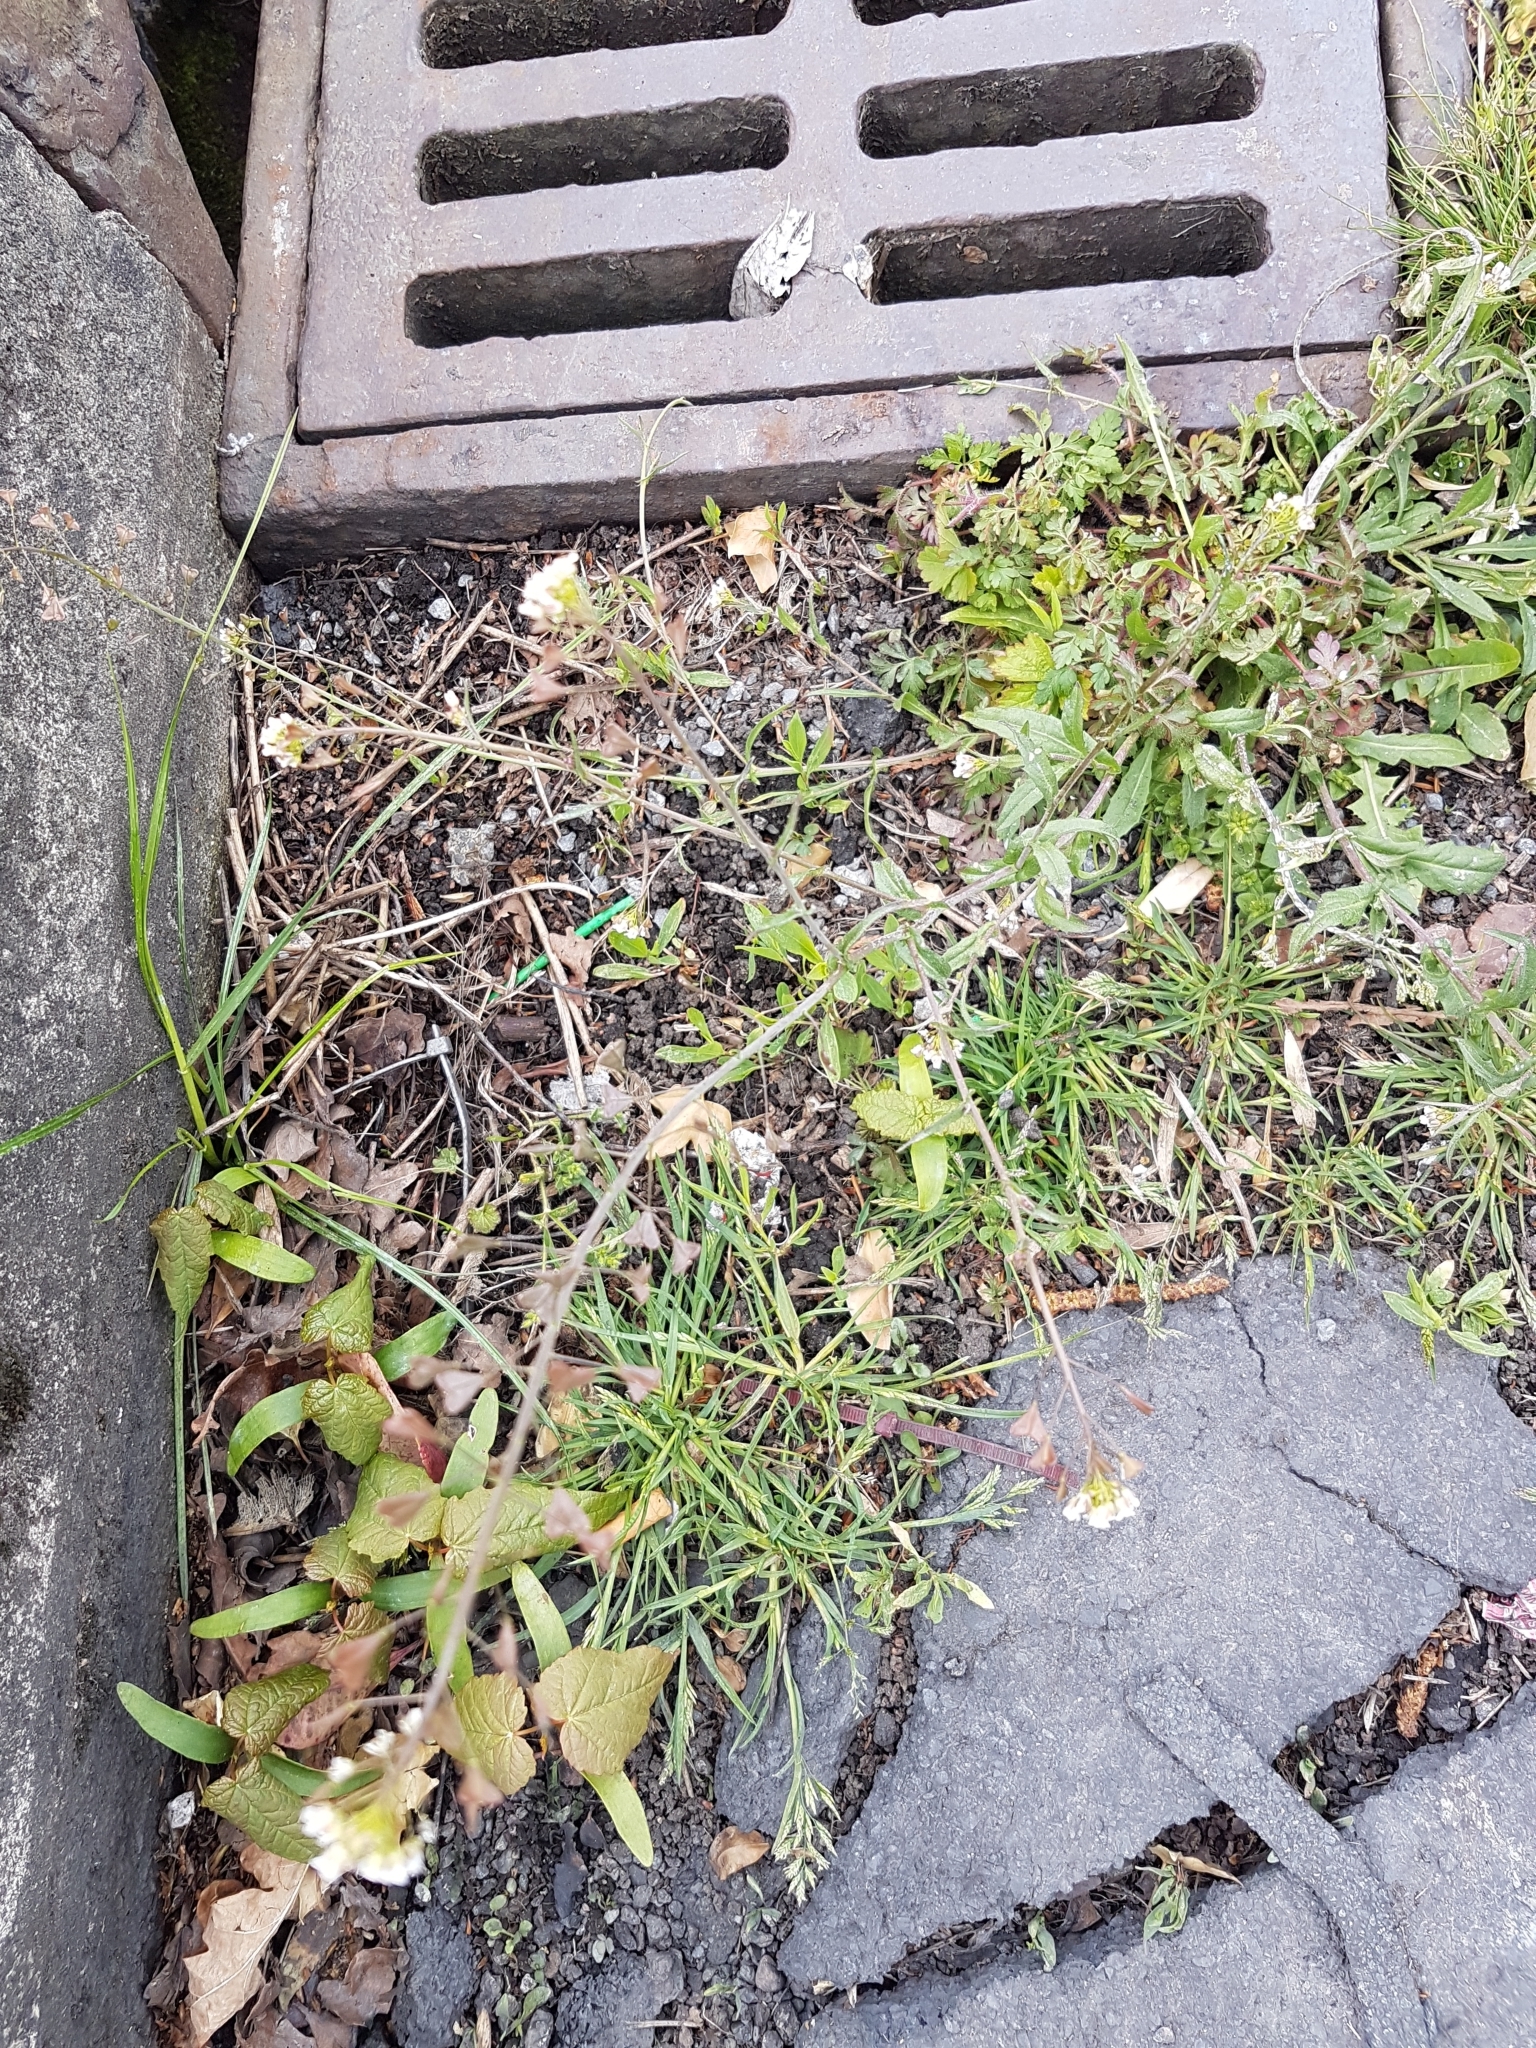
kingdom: Plantae
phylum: Tracheophyta
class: Magnoliopsida
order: Brassicales
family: Brassicaceae
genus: Capsella
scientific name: Capsella bursa-pastoris
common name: Shepherd's purse
